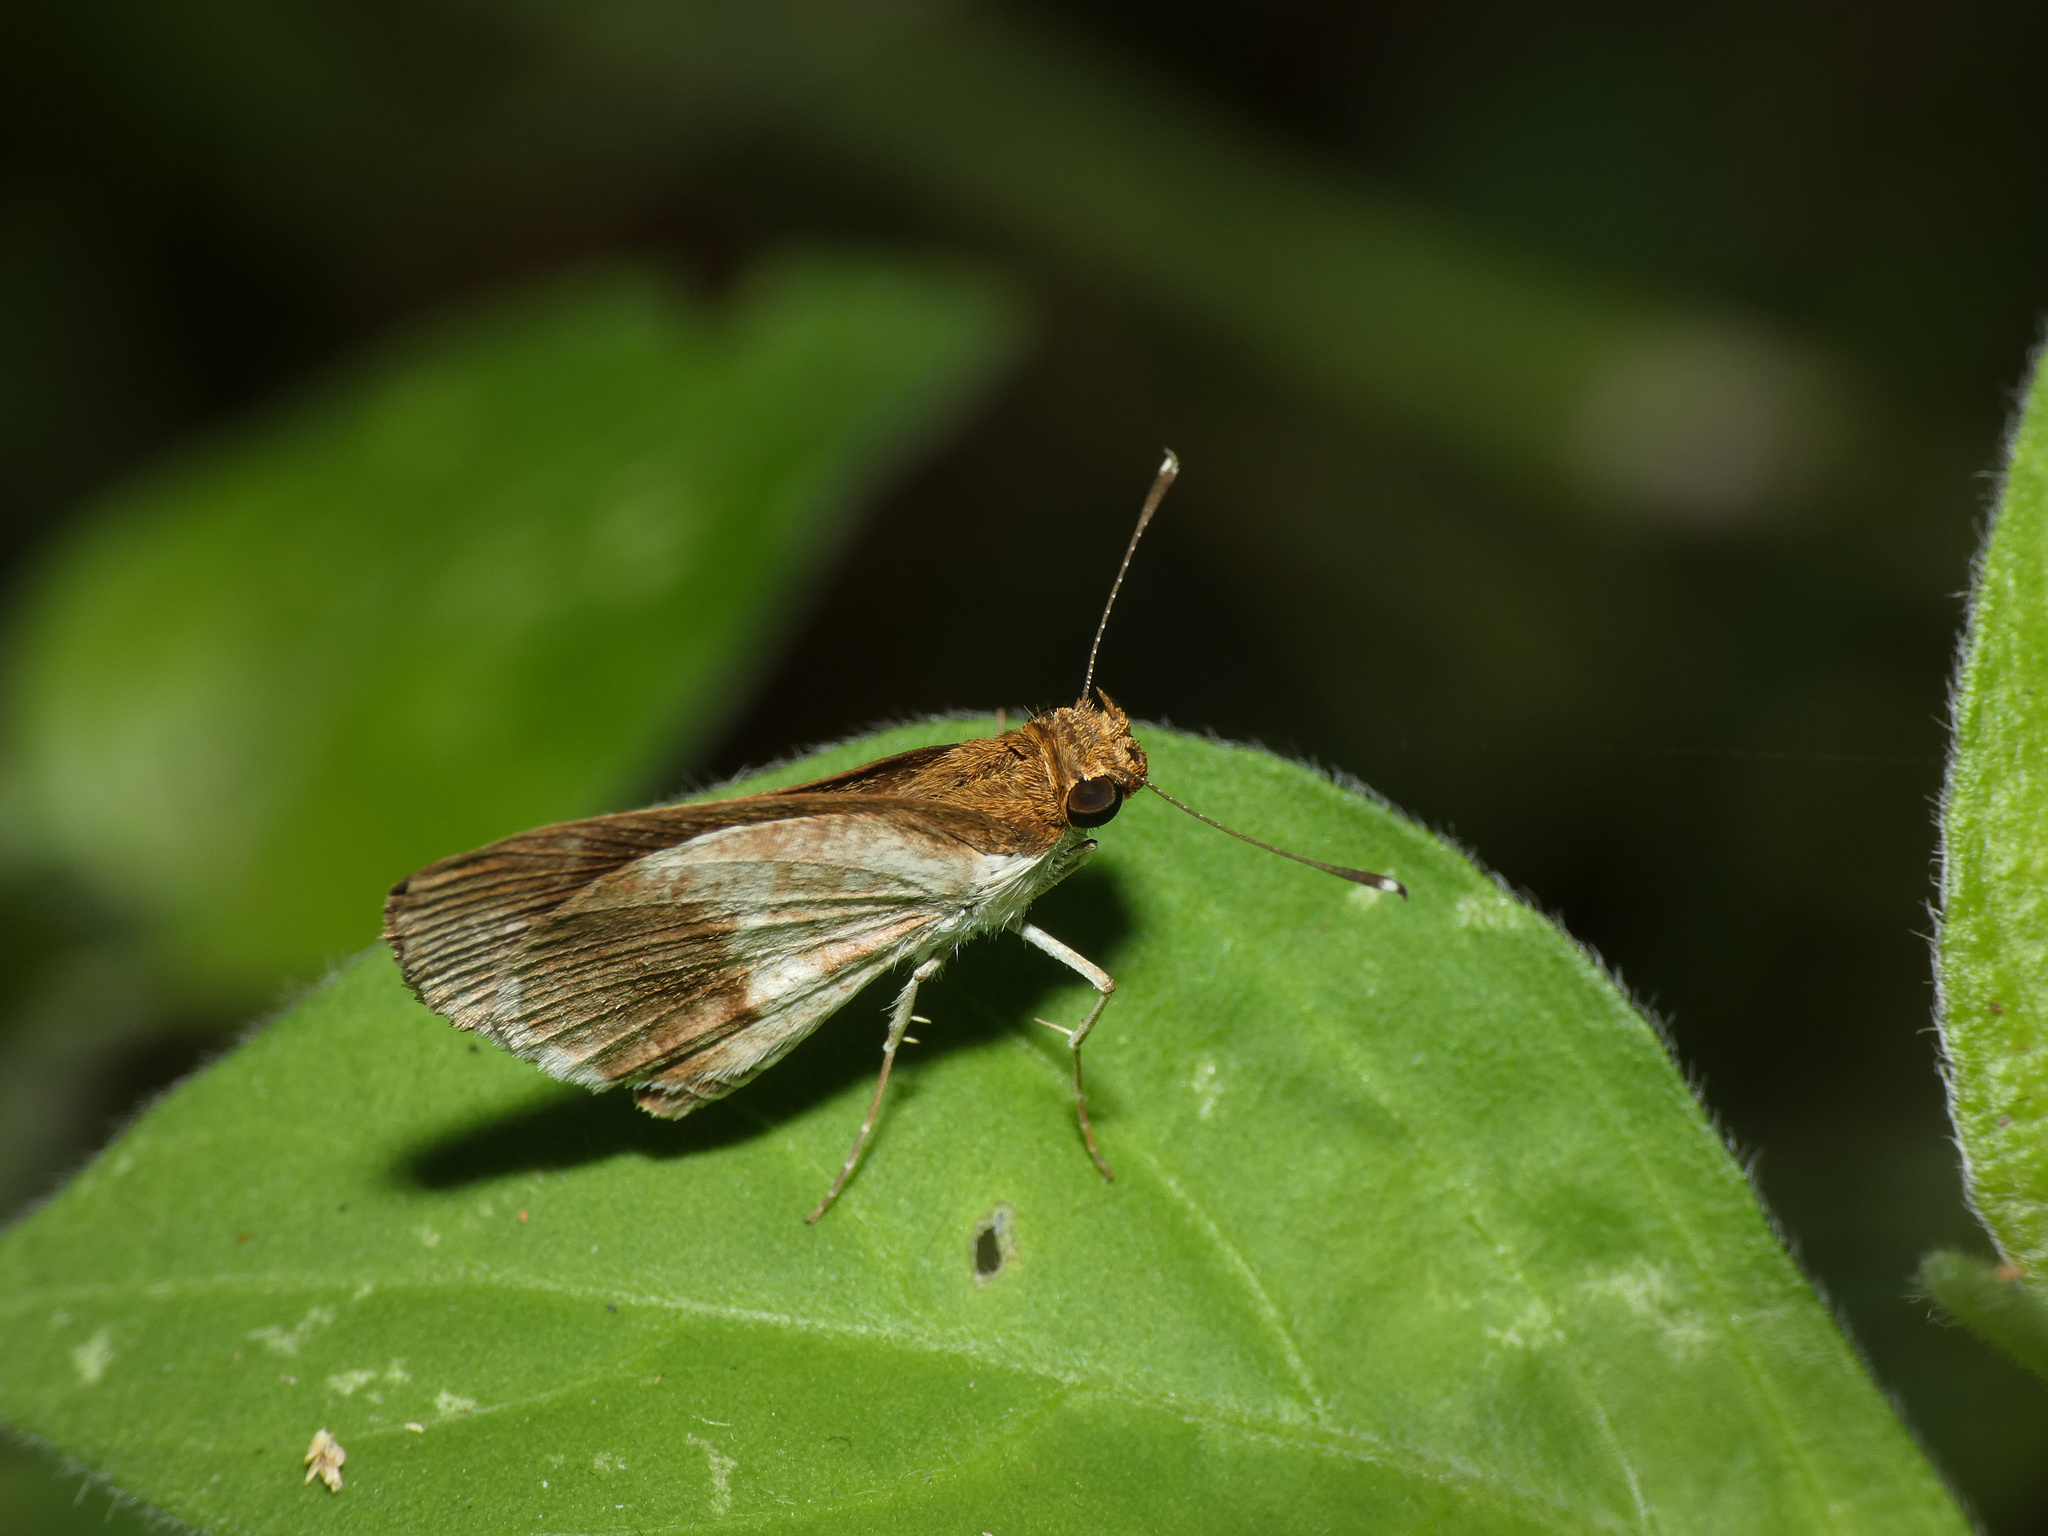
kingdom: Animalia
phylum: Arthropoda
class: Insecta
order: Lepidoptera
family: Hesperiidae
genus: Acleros
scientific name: Acleros mackenii
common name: Shade dart
